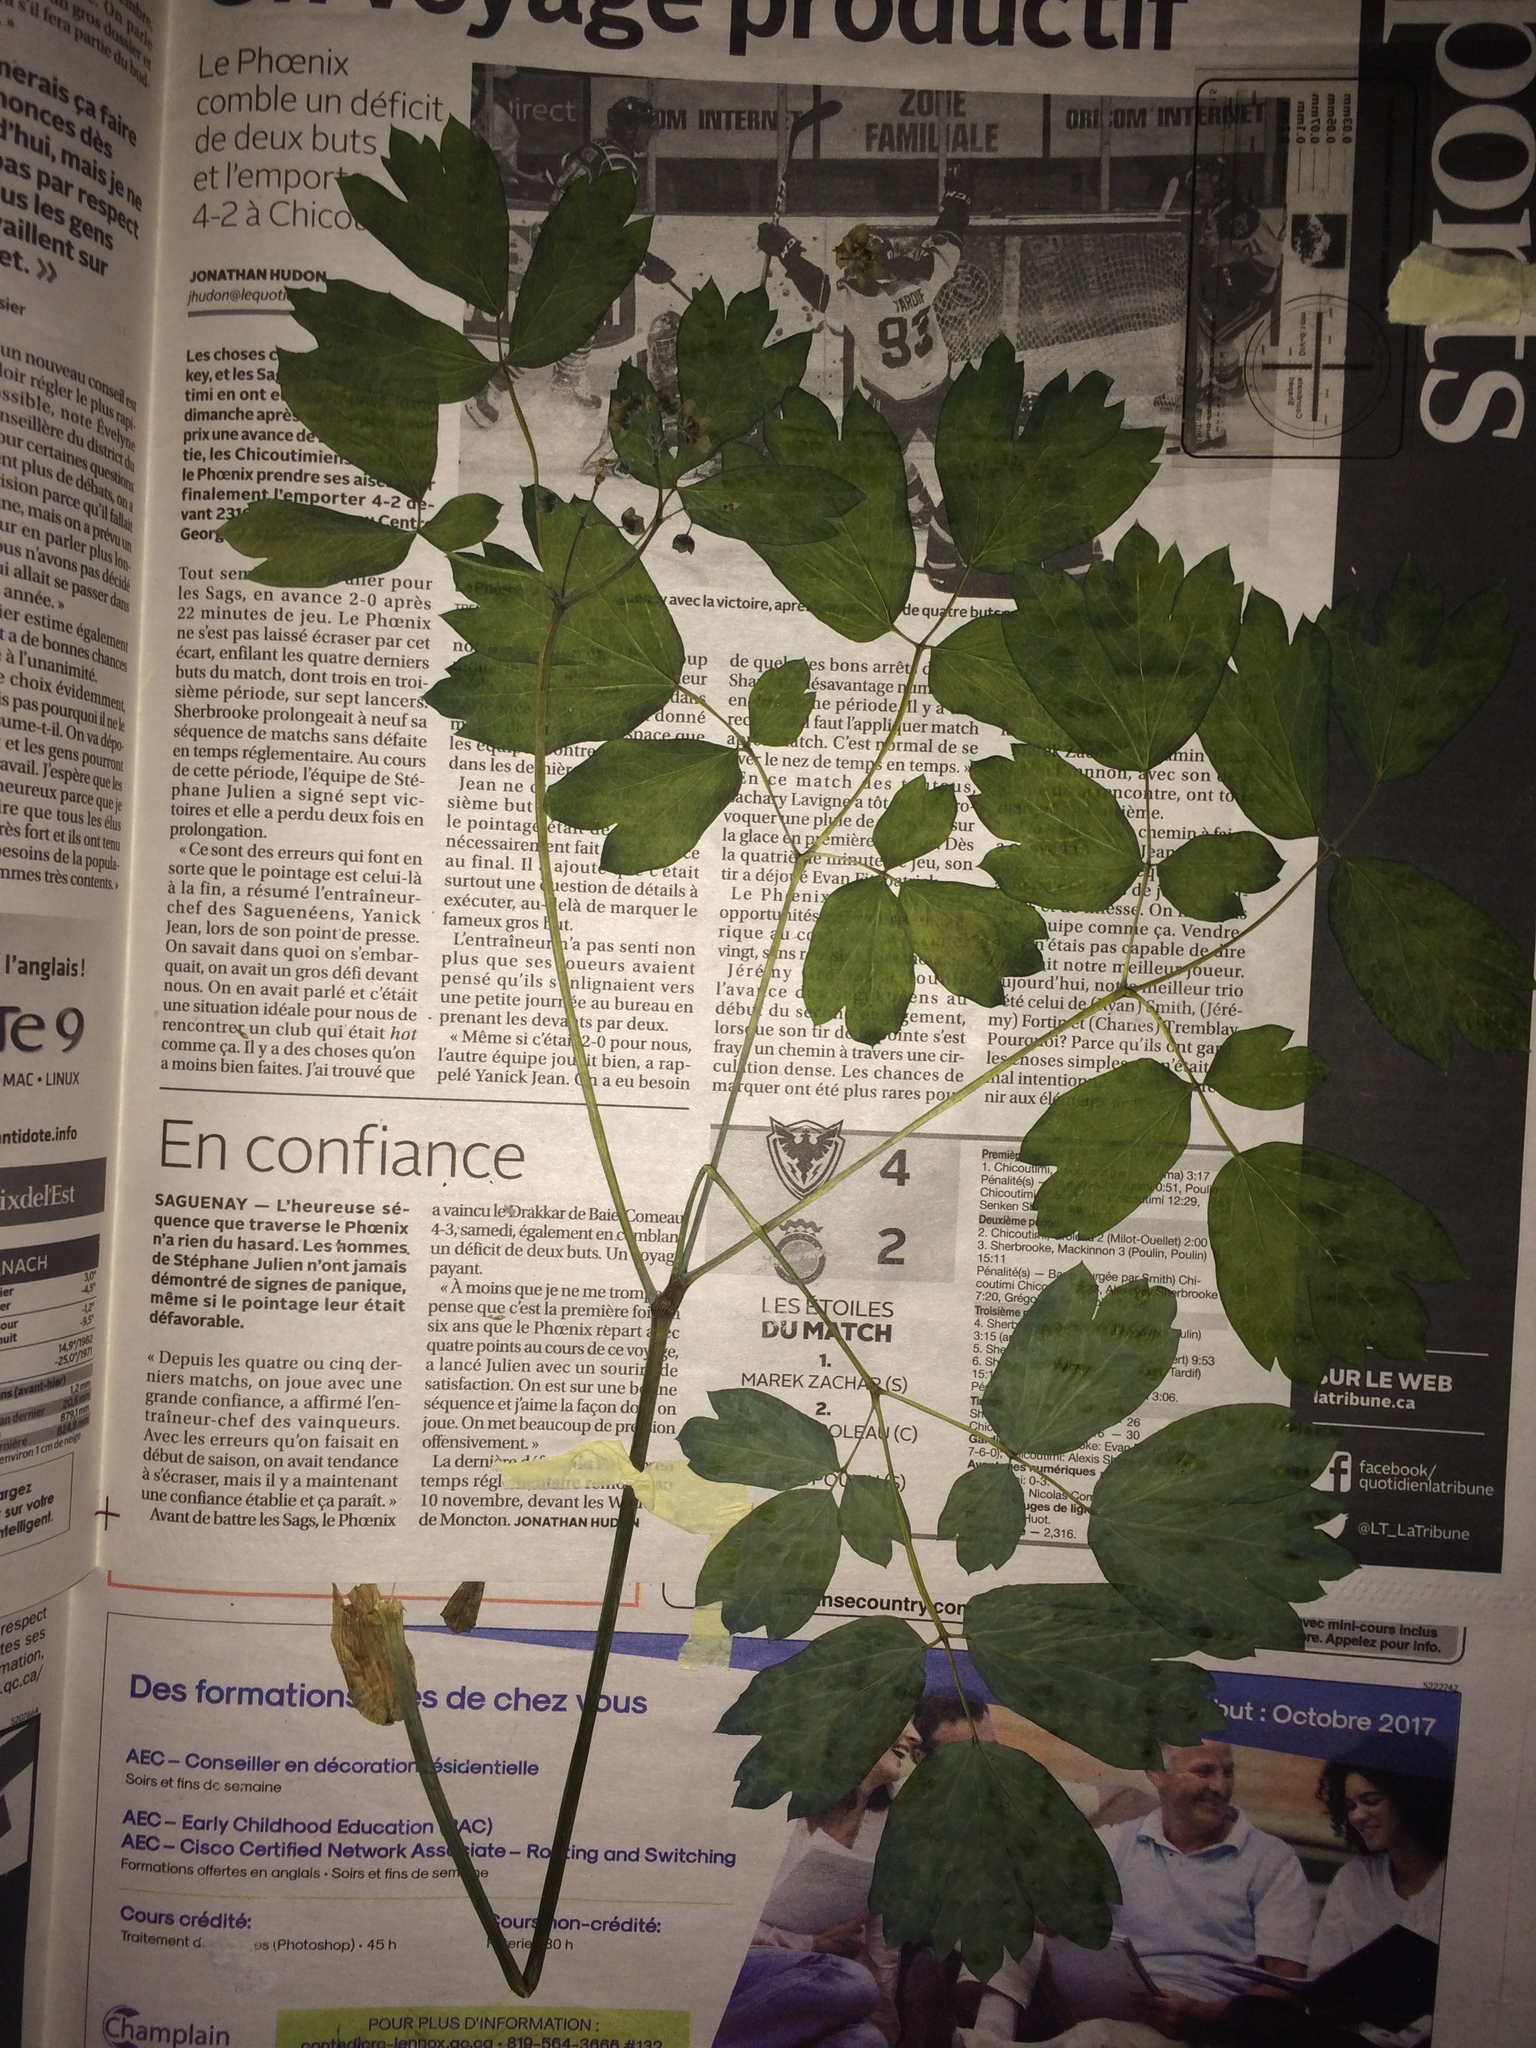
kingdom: Plantae
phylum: Tracheophyta
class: Magnoliopsida
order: Ranunculales
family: Berberidaceae
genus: Caulophyllum
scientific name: Caulophyllum giganteum
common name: Blue cohosh
